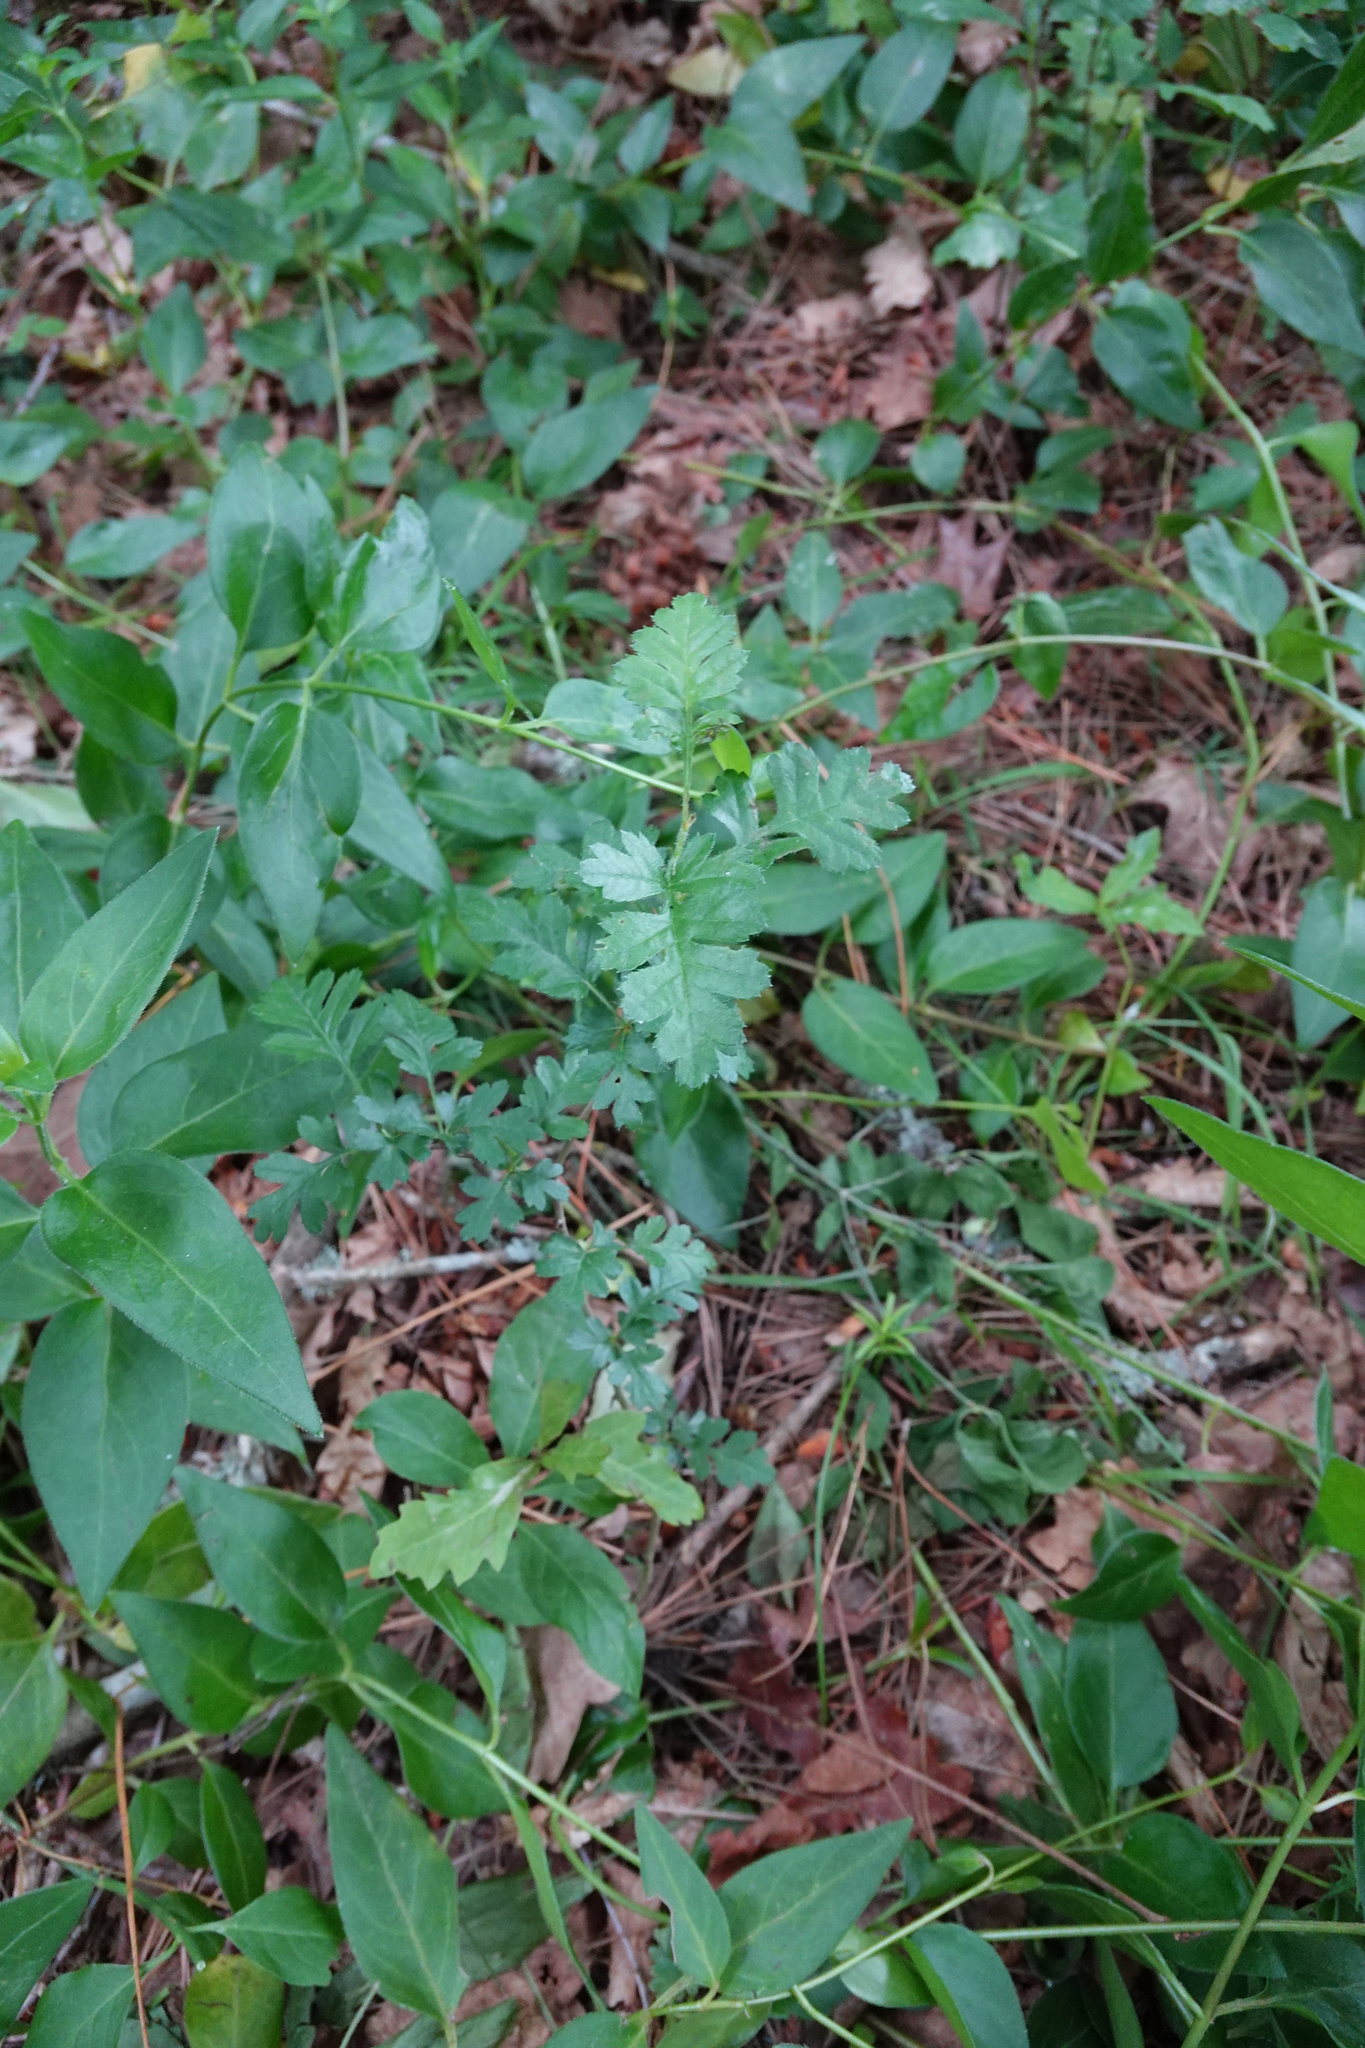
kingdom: Plantae
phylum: Tracheophyta
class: Magnoliopsida
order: Rosales
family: Rosaceae
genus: Crataegus
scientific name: Crataegus monogyna
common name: Hawthorn
